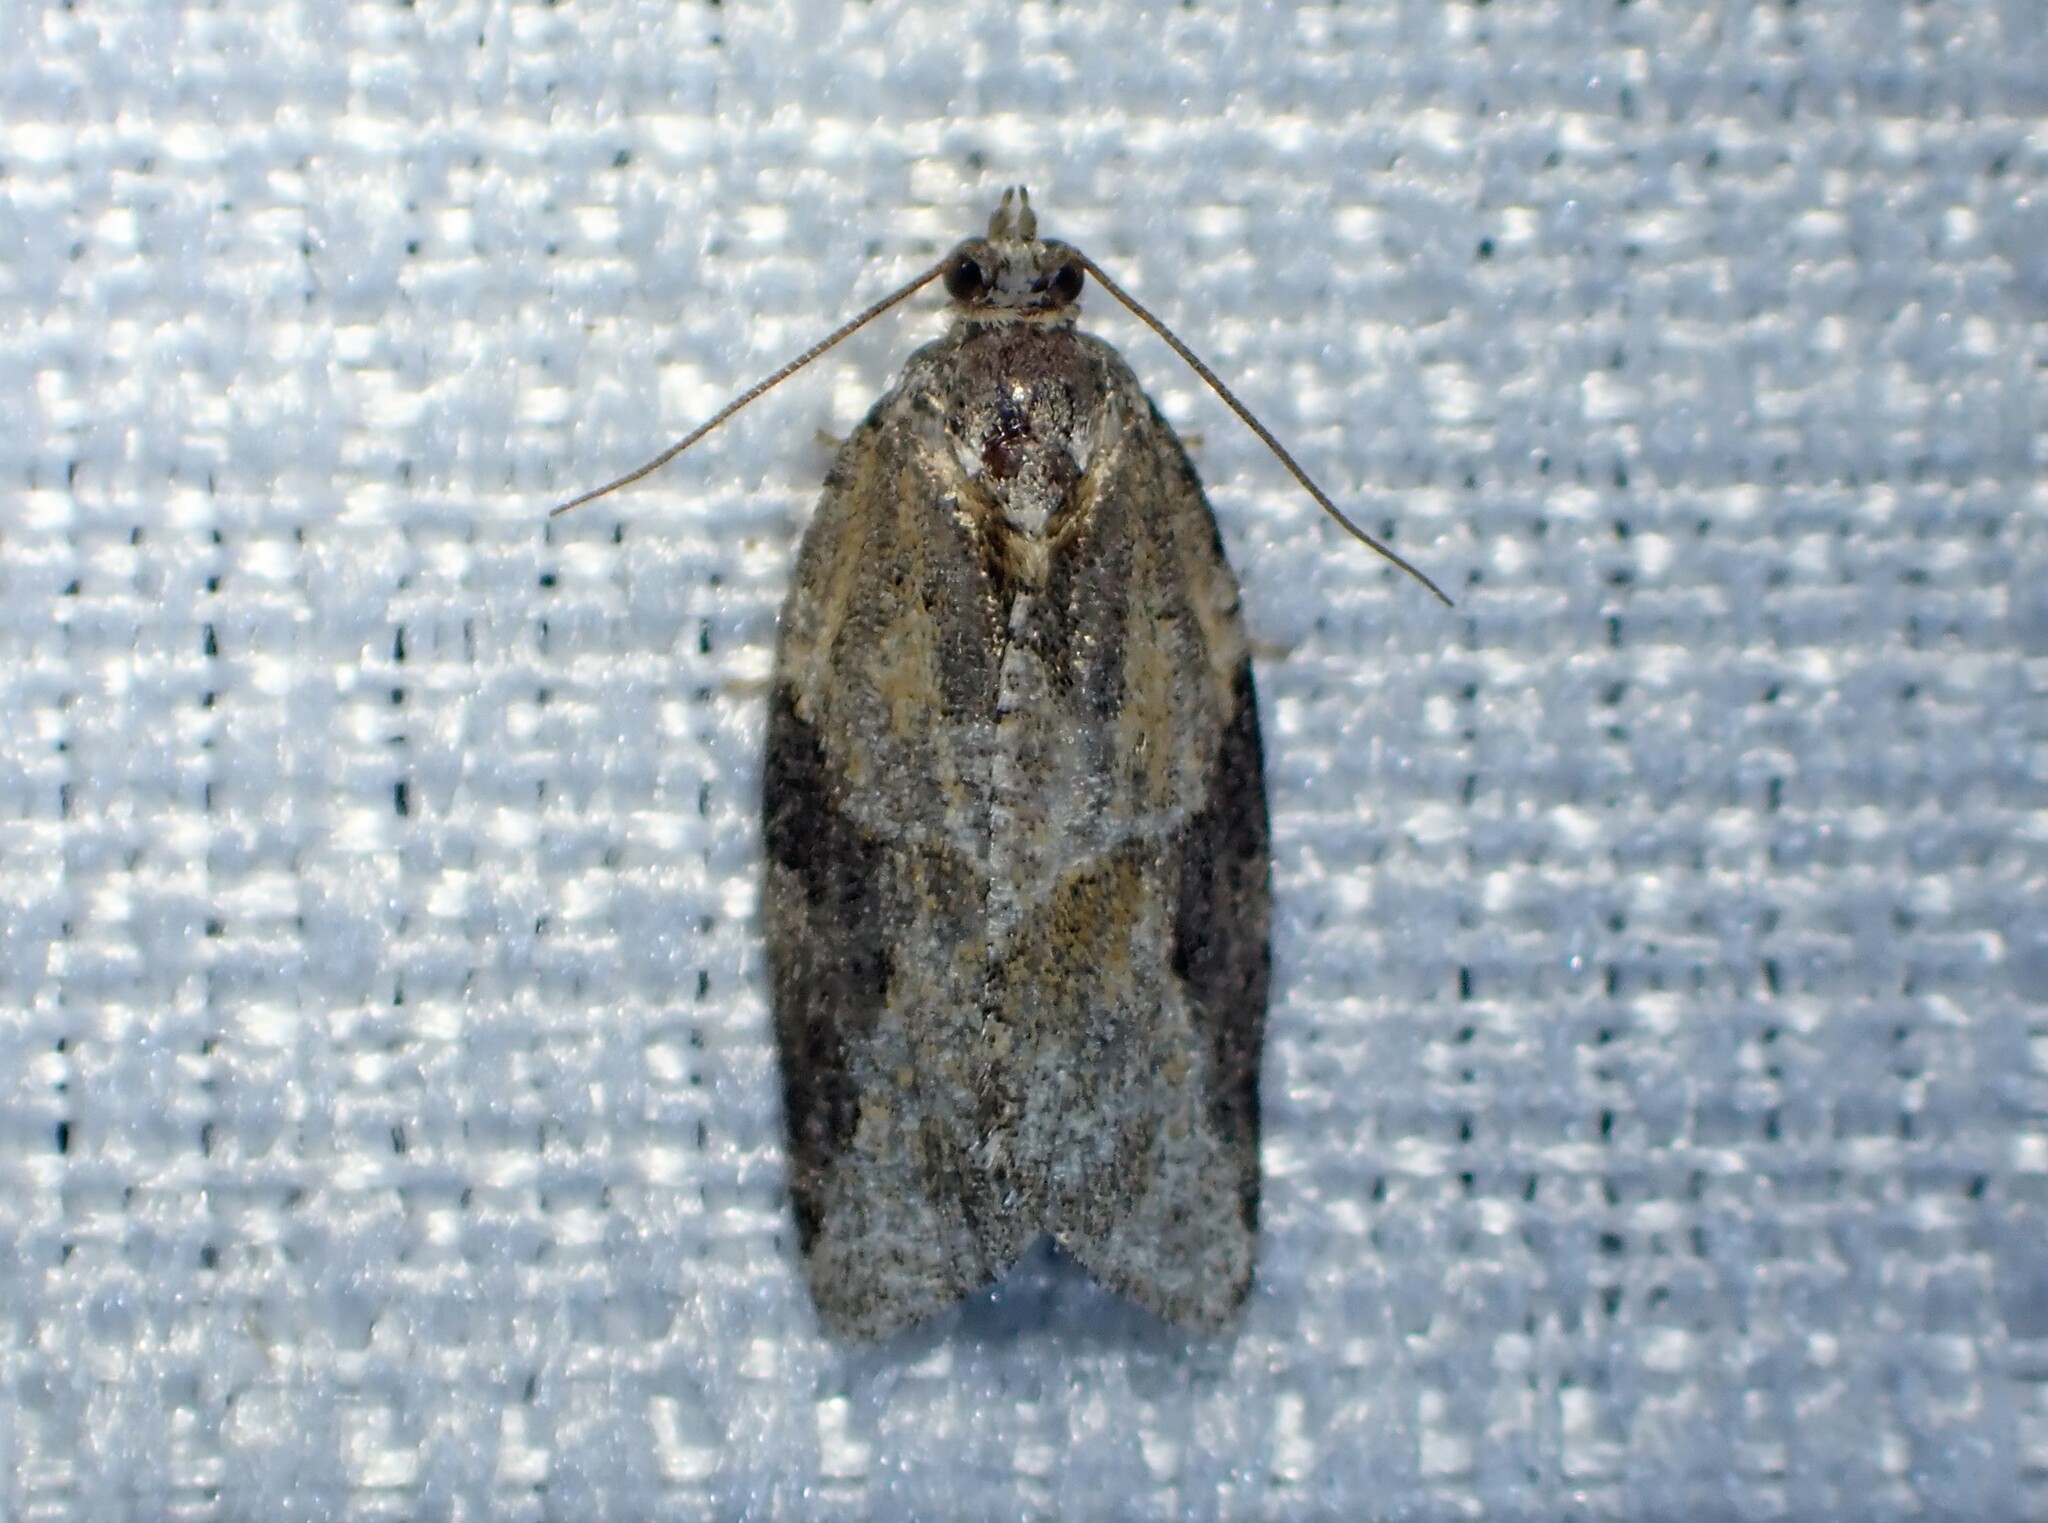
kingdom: Animalia
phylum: Arthropoda
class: Insecta
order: Lepidoptera
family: Tortricidae
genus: Argyrotaenia
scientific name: Argyrotaenia mariana
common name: Gray-banded leafroller moth
